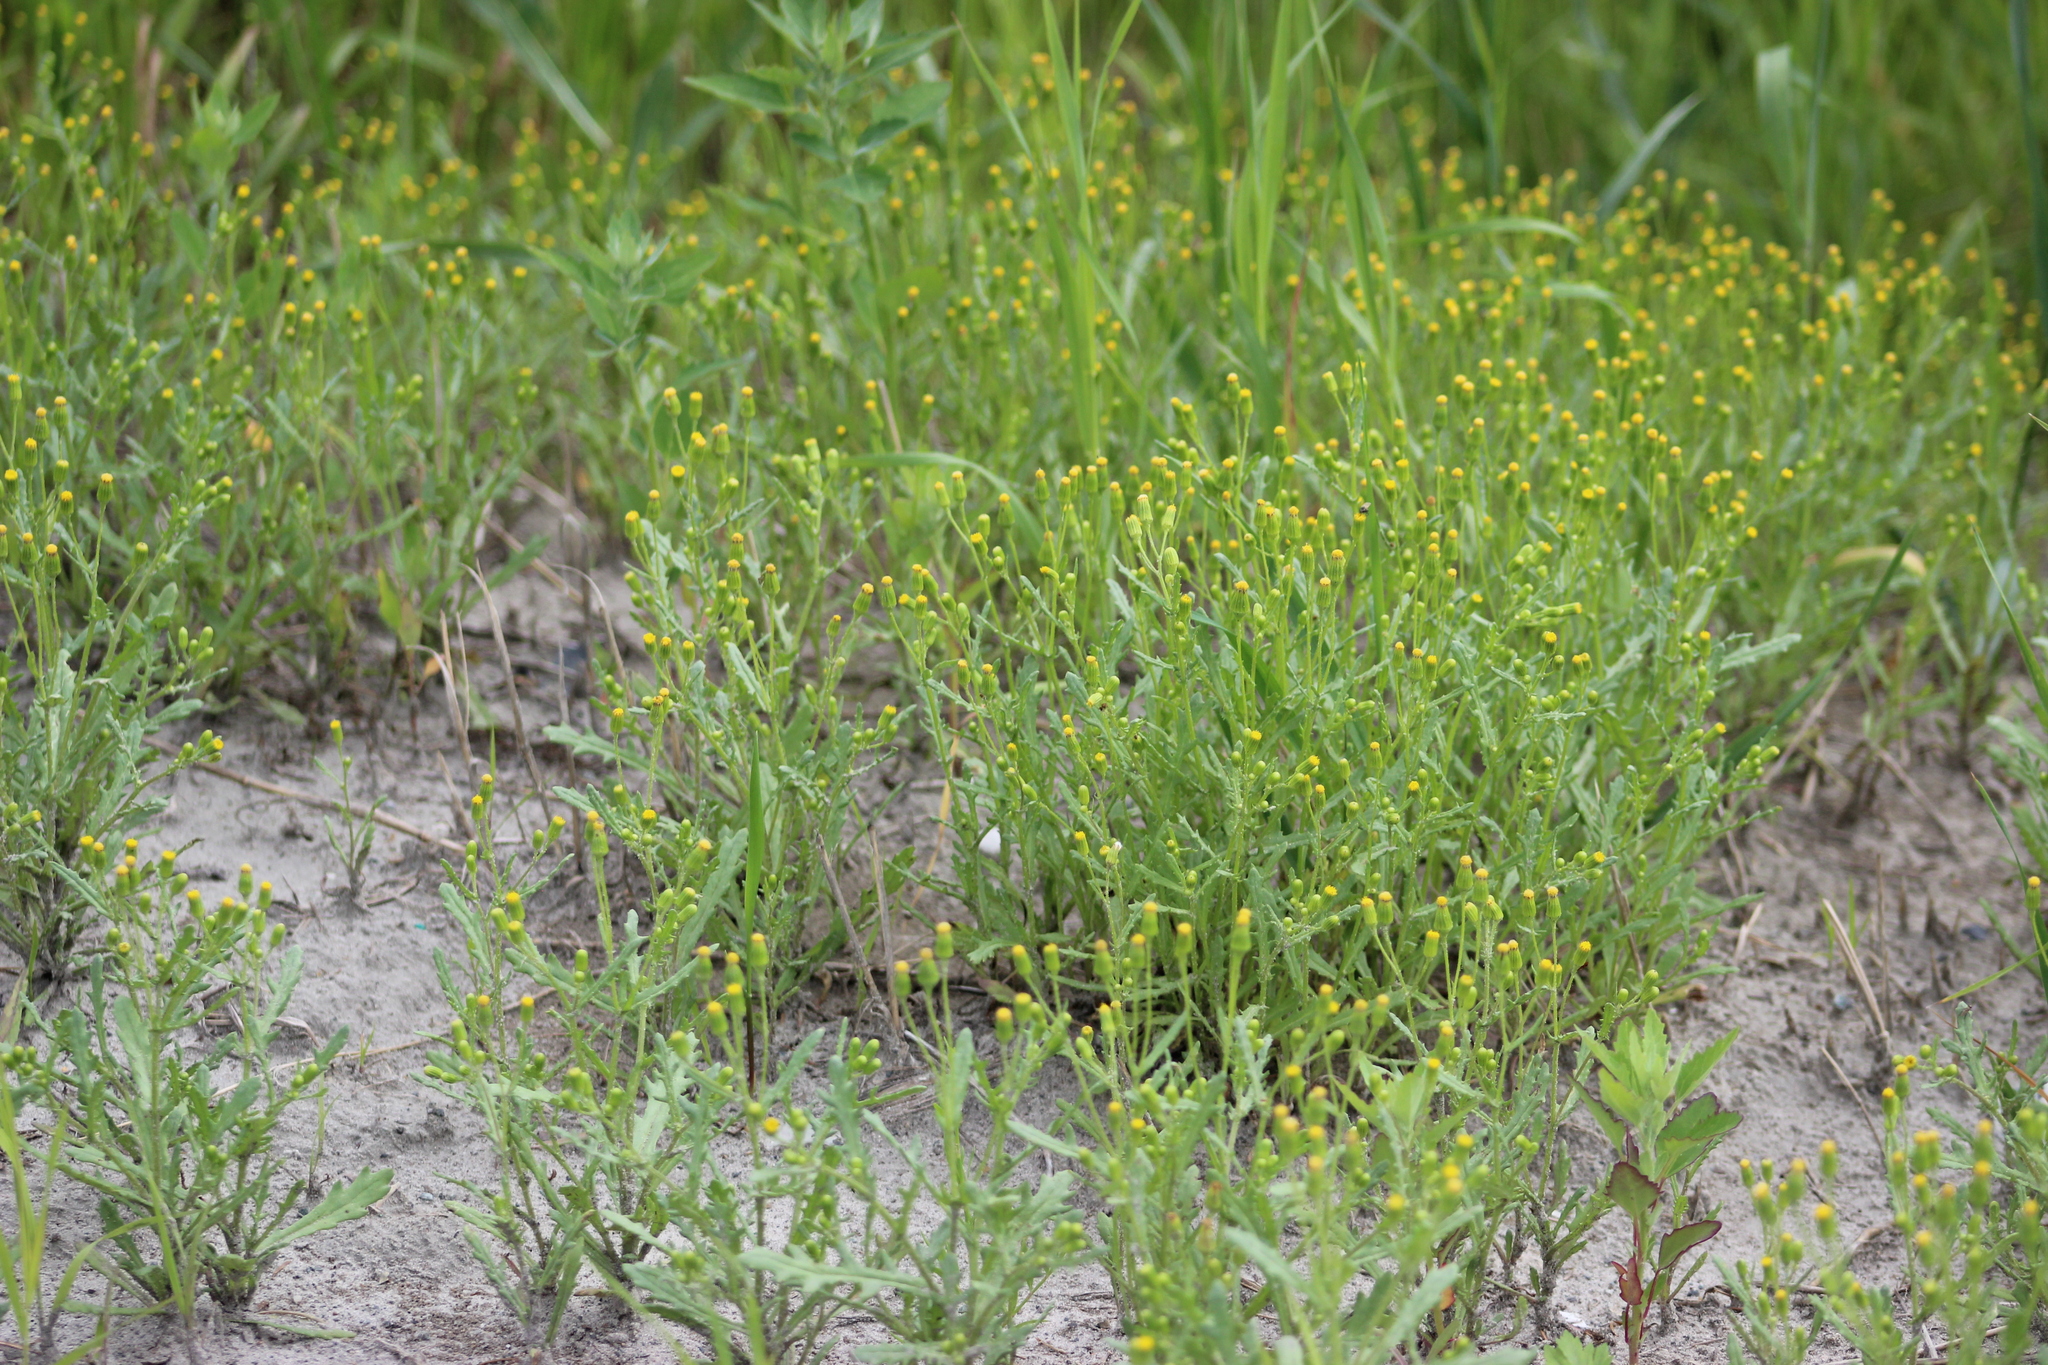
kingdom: Plantae
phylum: Tracheophyta
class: Magnoliopsida
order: Asterales
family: Asteraceae
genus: Senecio
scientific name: Senecio dubitabilis
